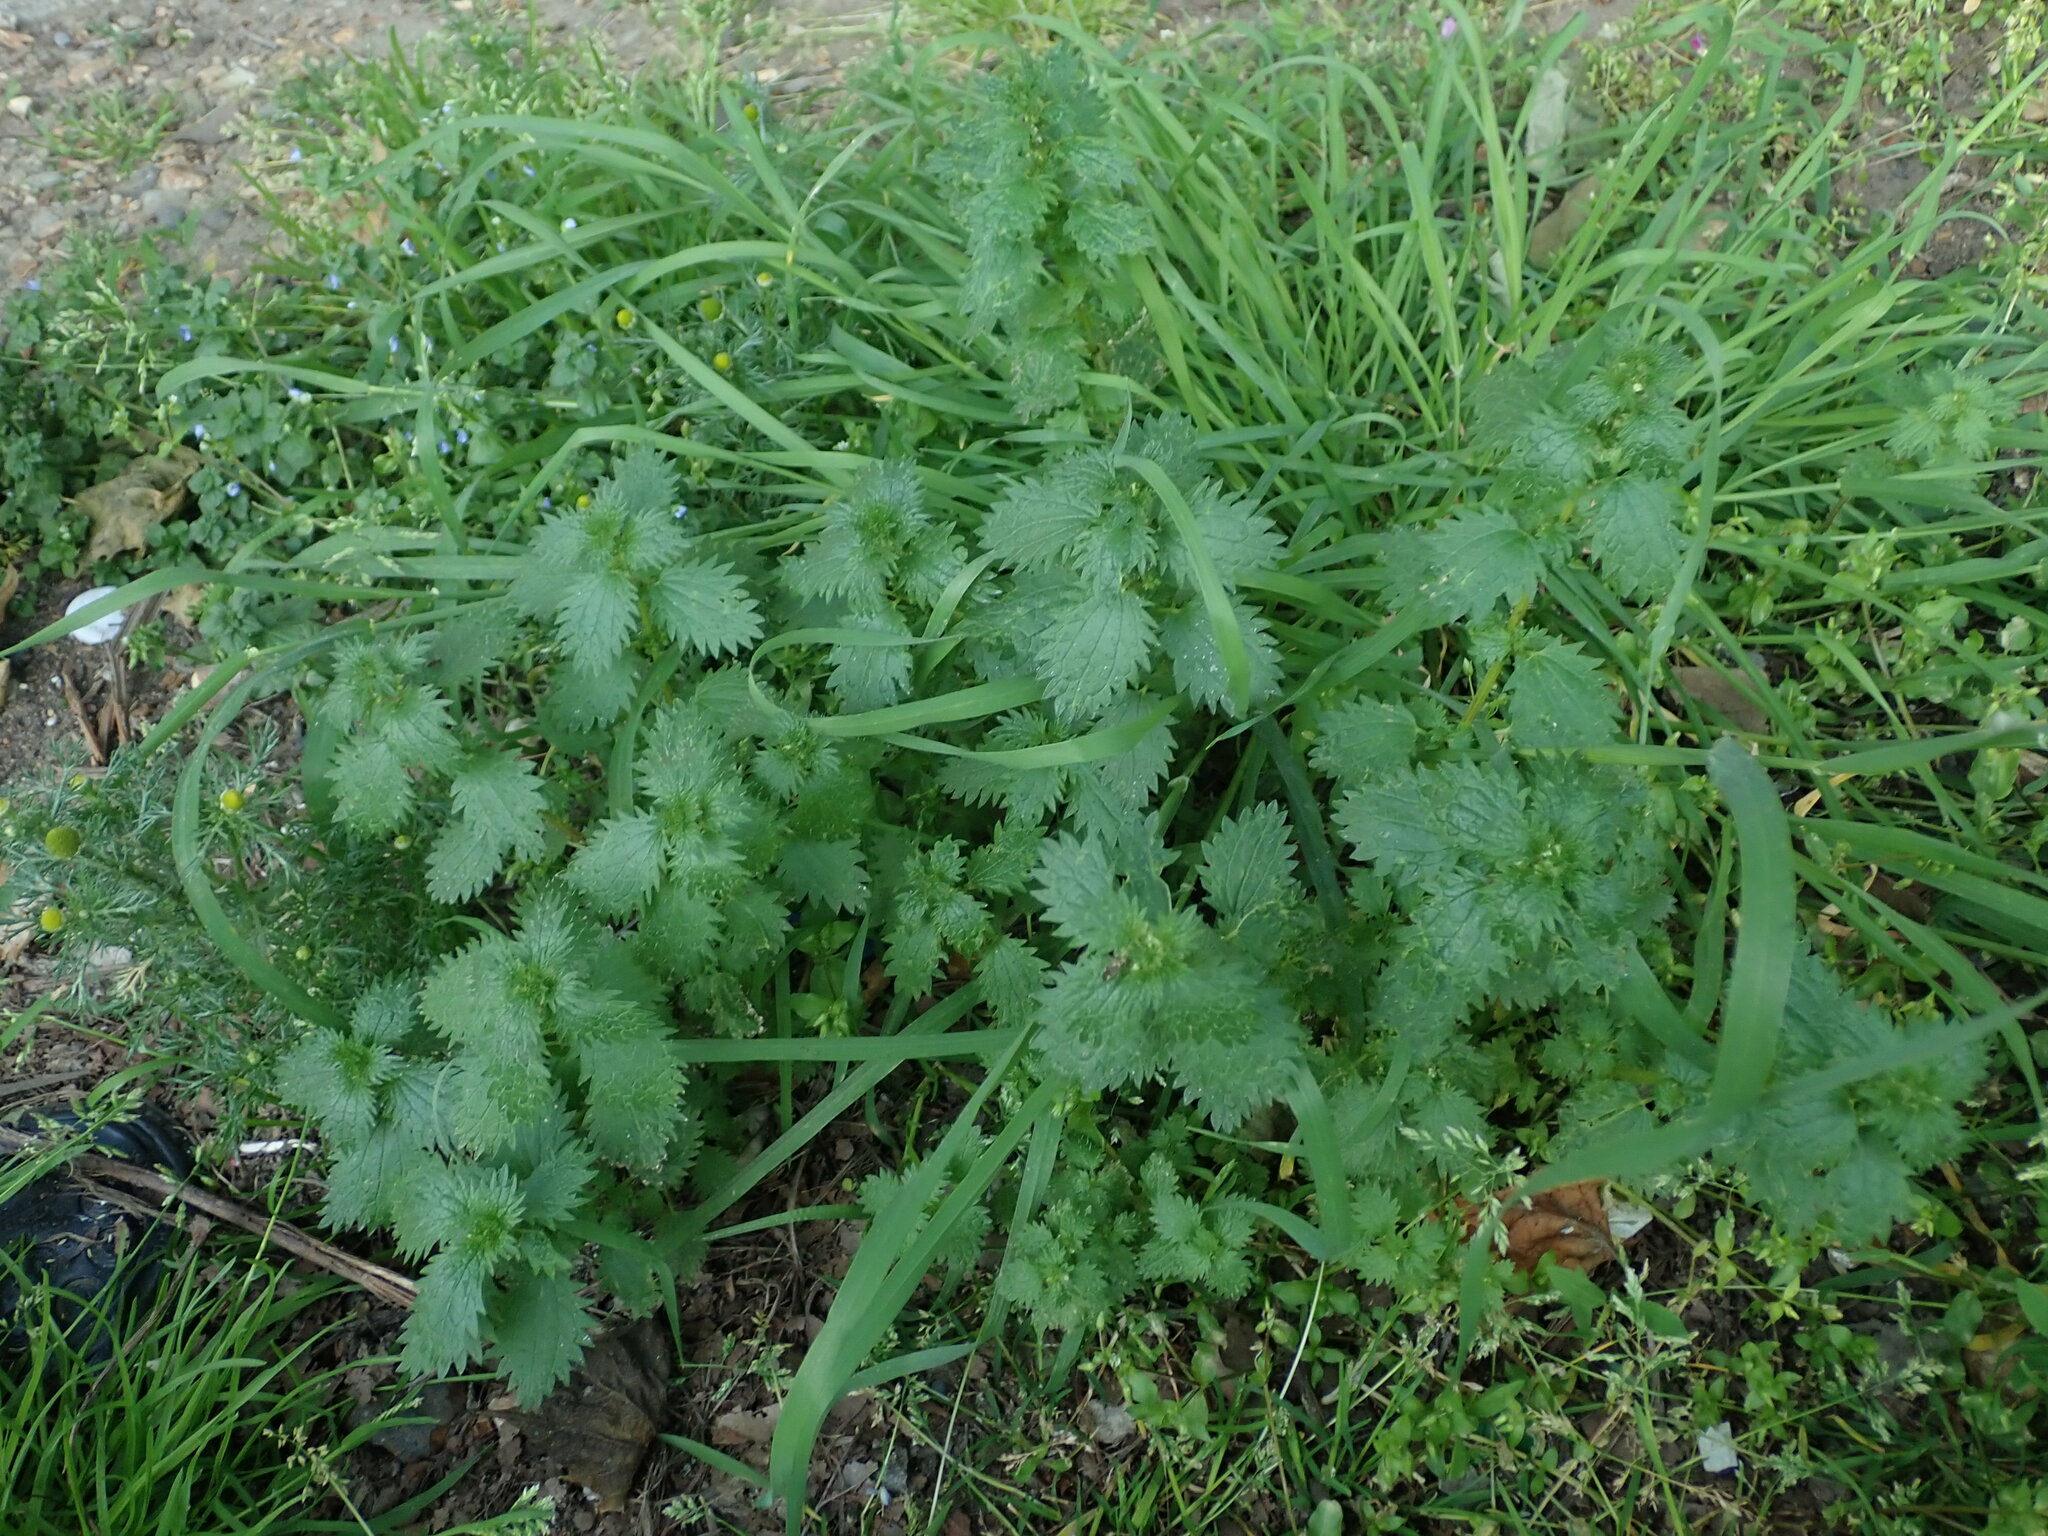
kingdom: Plantae
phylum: Tracheophyta
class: Magnoliopsida
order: Rosales
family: Urticaceae
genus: Urtica
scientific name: Urtica urens
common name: Dwarf nettle
